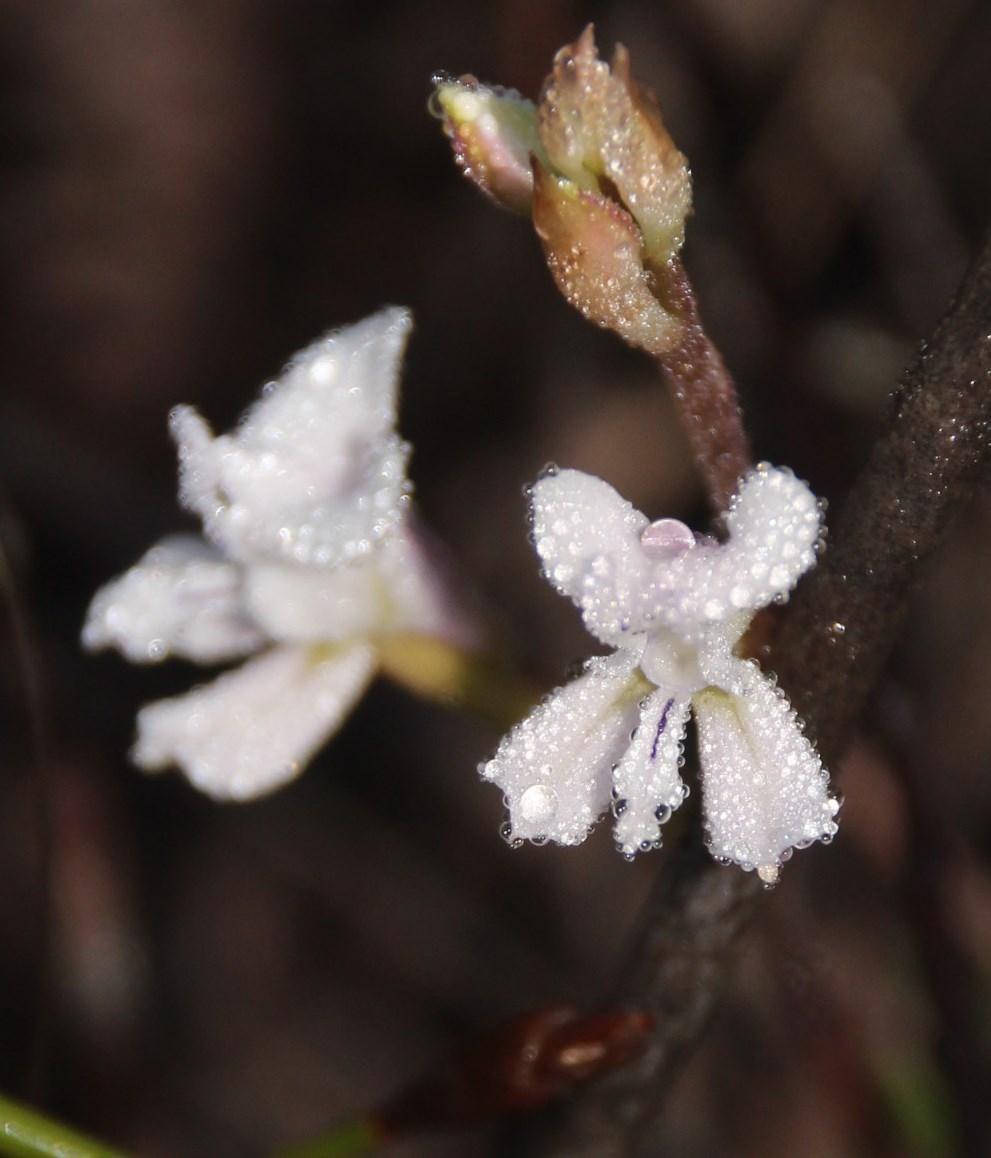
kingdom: Plantae
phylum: Tracheophyta
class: Liliopsida
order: Asparagales
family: Orchidaceae
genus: Disa
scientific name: Disa sagittalis
